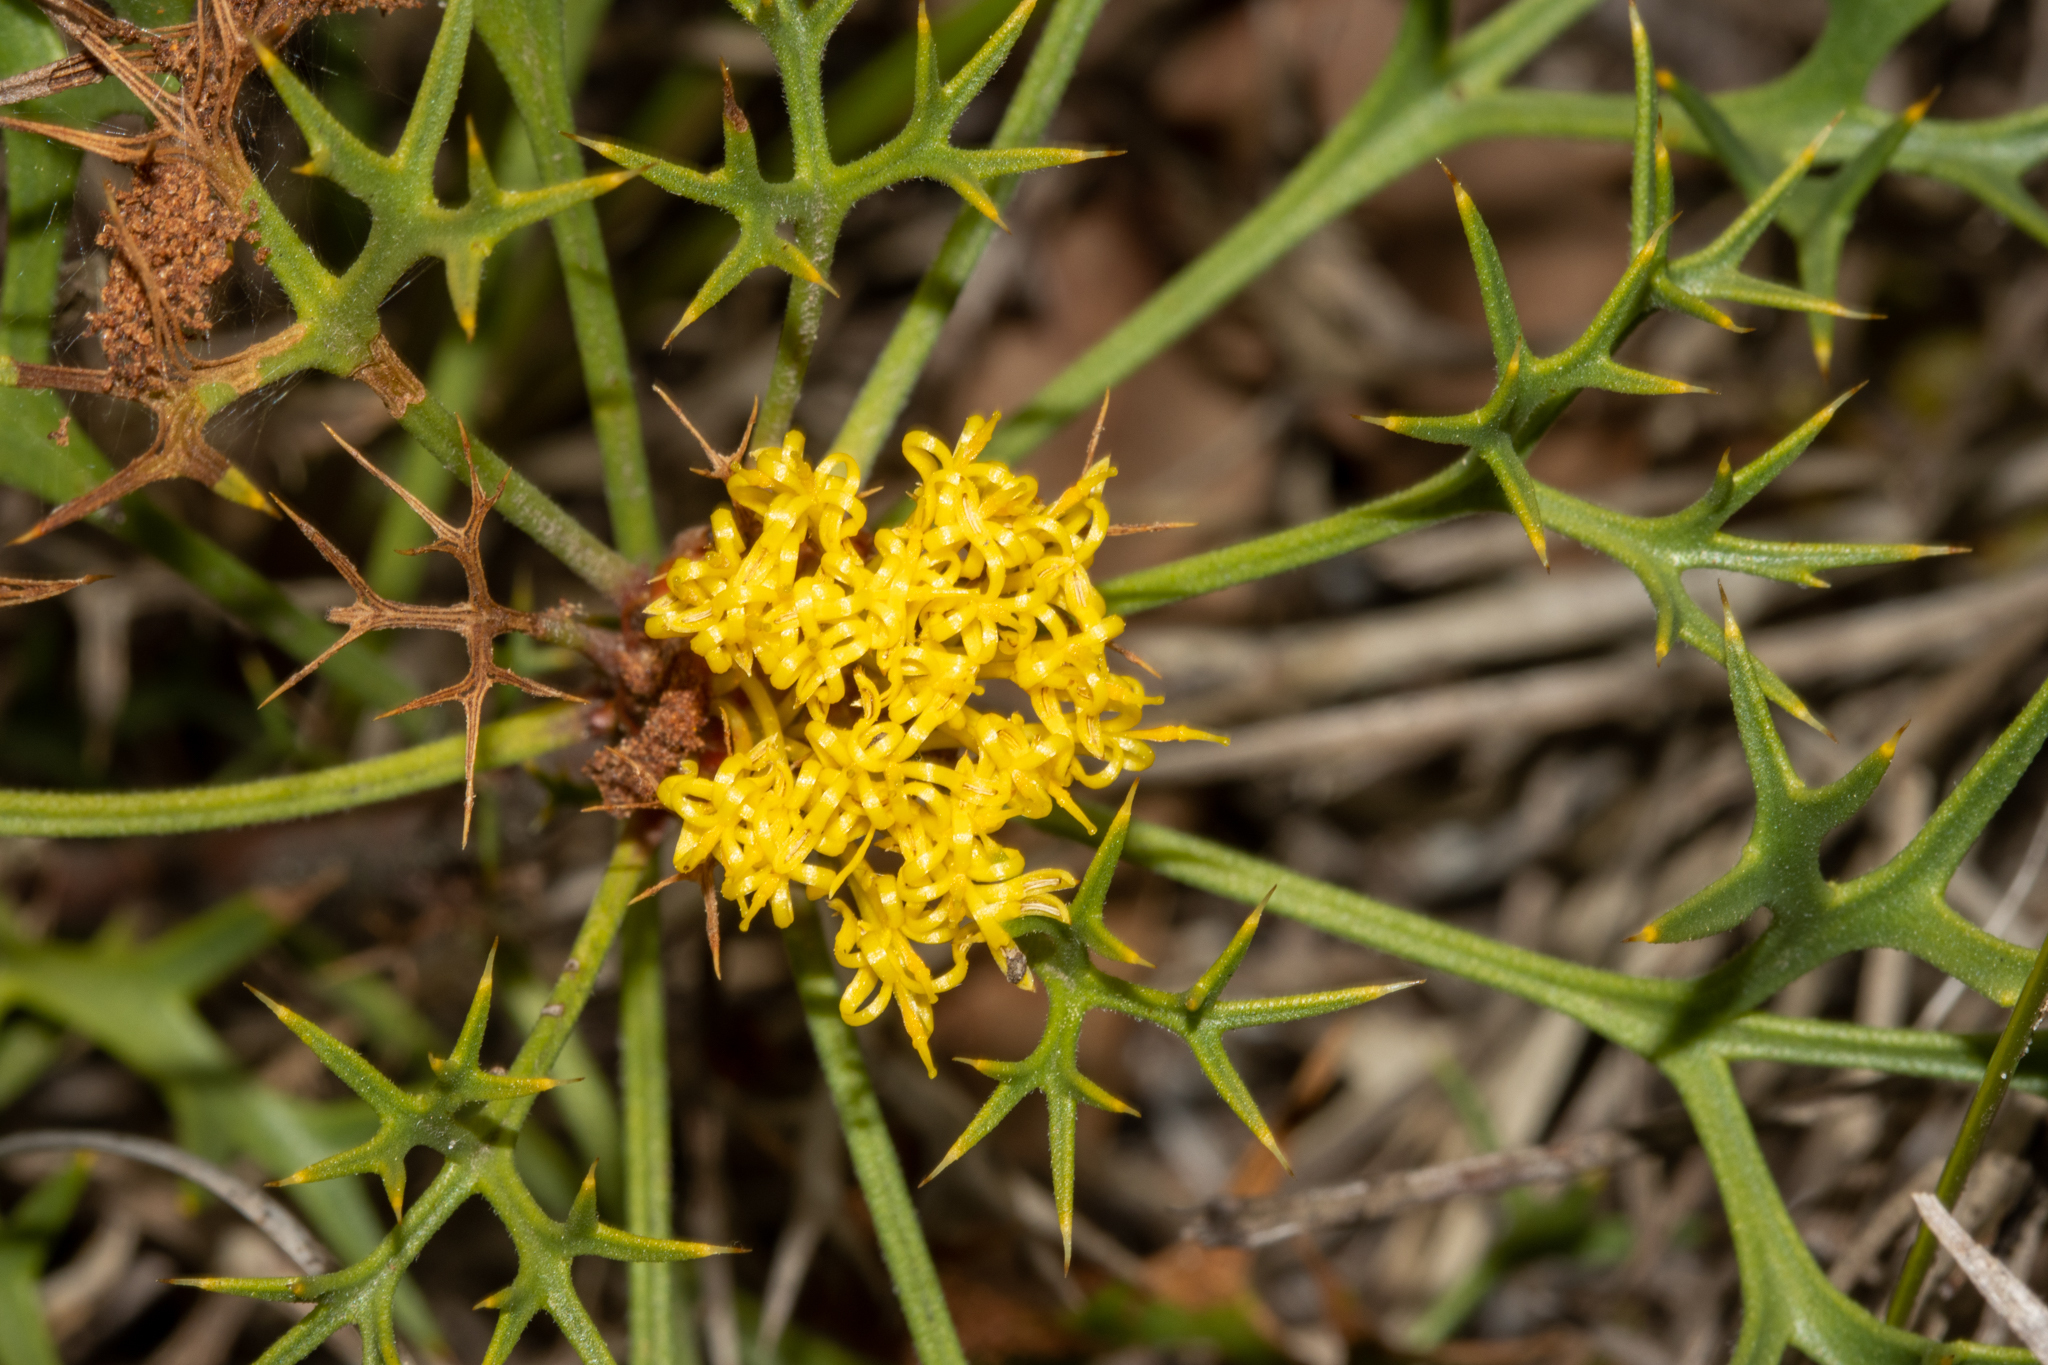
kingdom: Plantae
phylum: Tracheophyta
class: Magnoliopsida
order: Proteales
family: Proteaceae
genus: Isopogon
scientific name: Isopogon ceratophyllus
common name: Horny cone-bush
